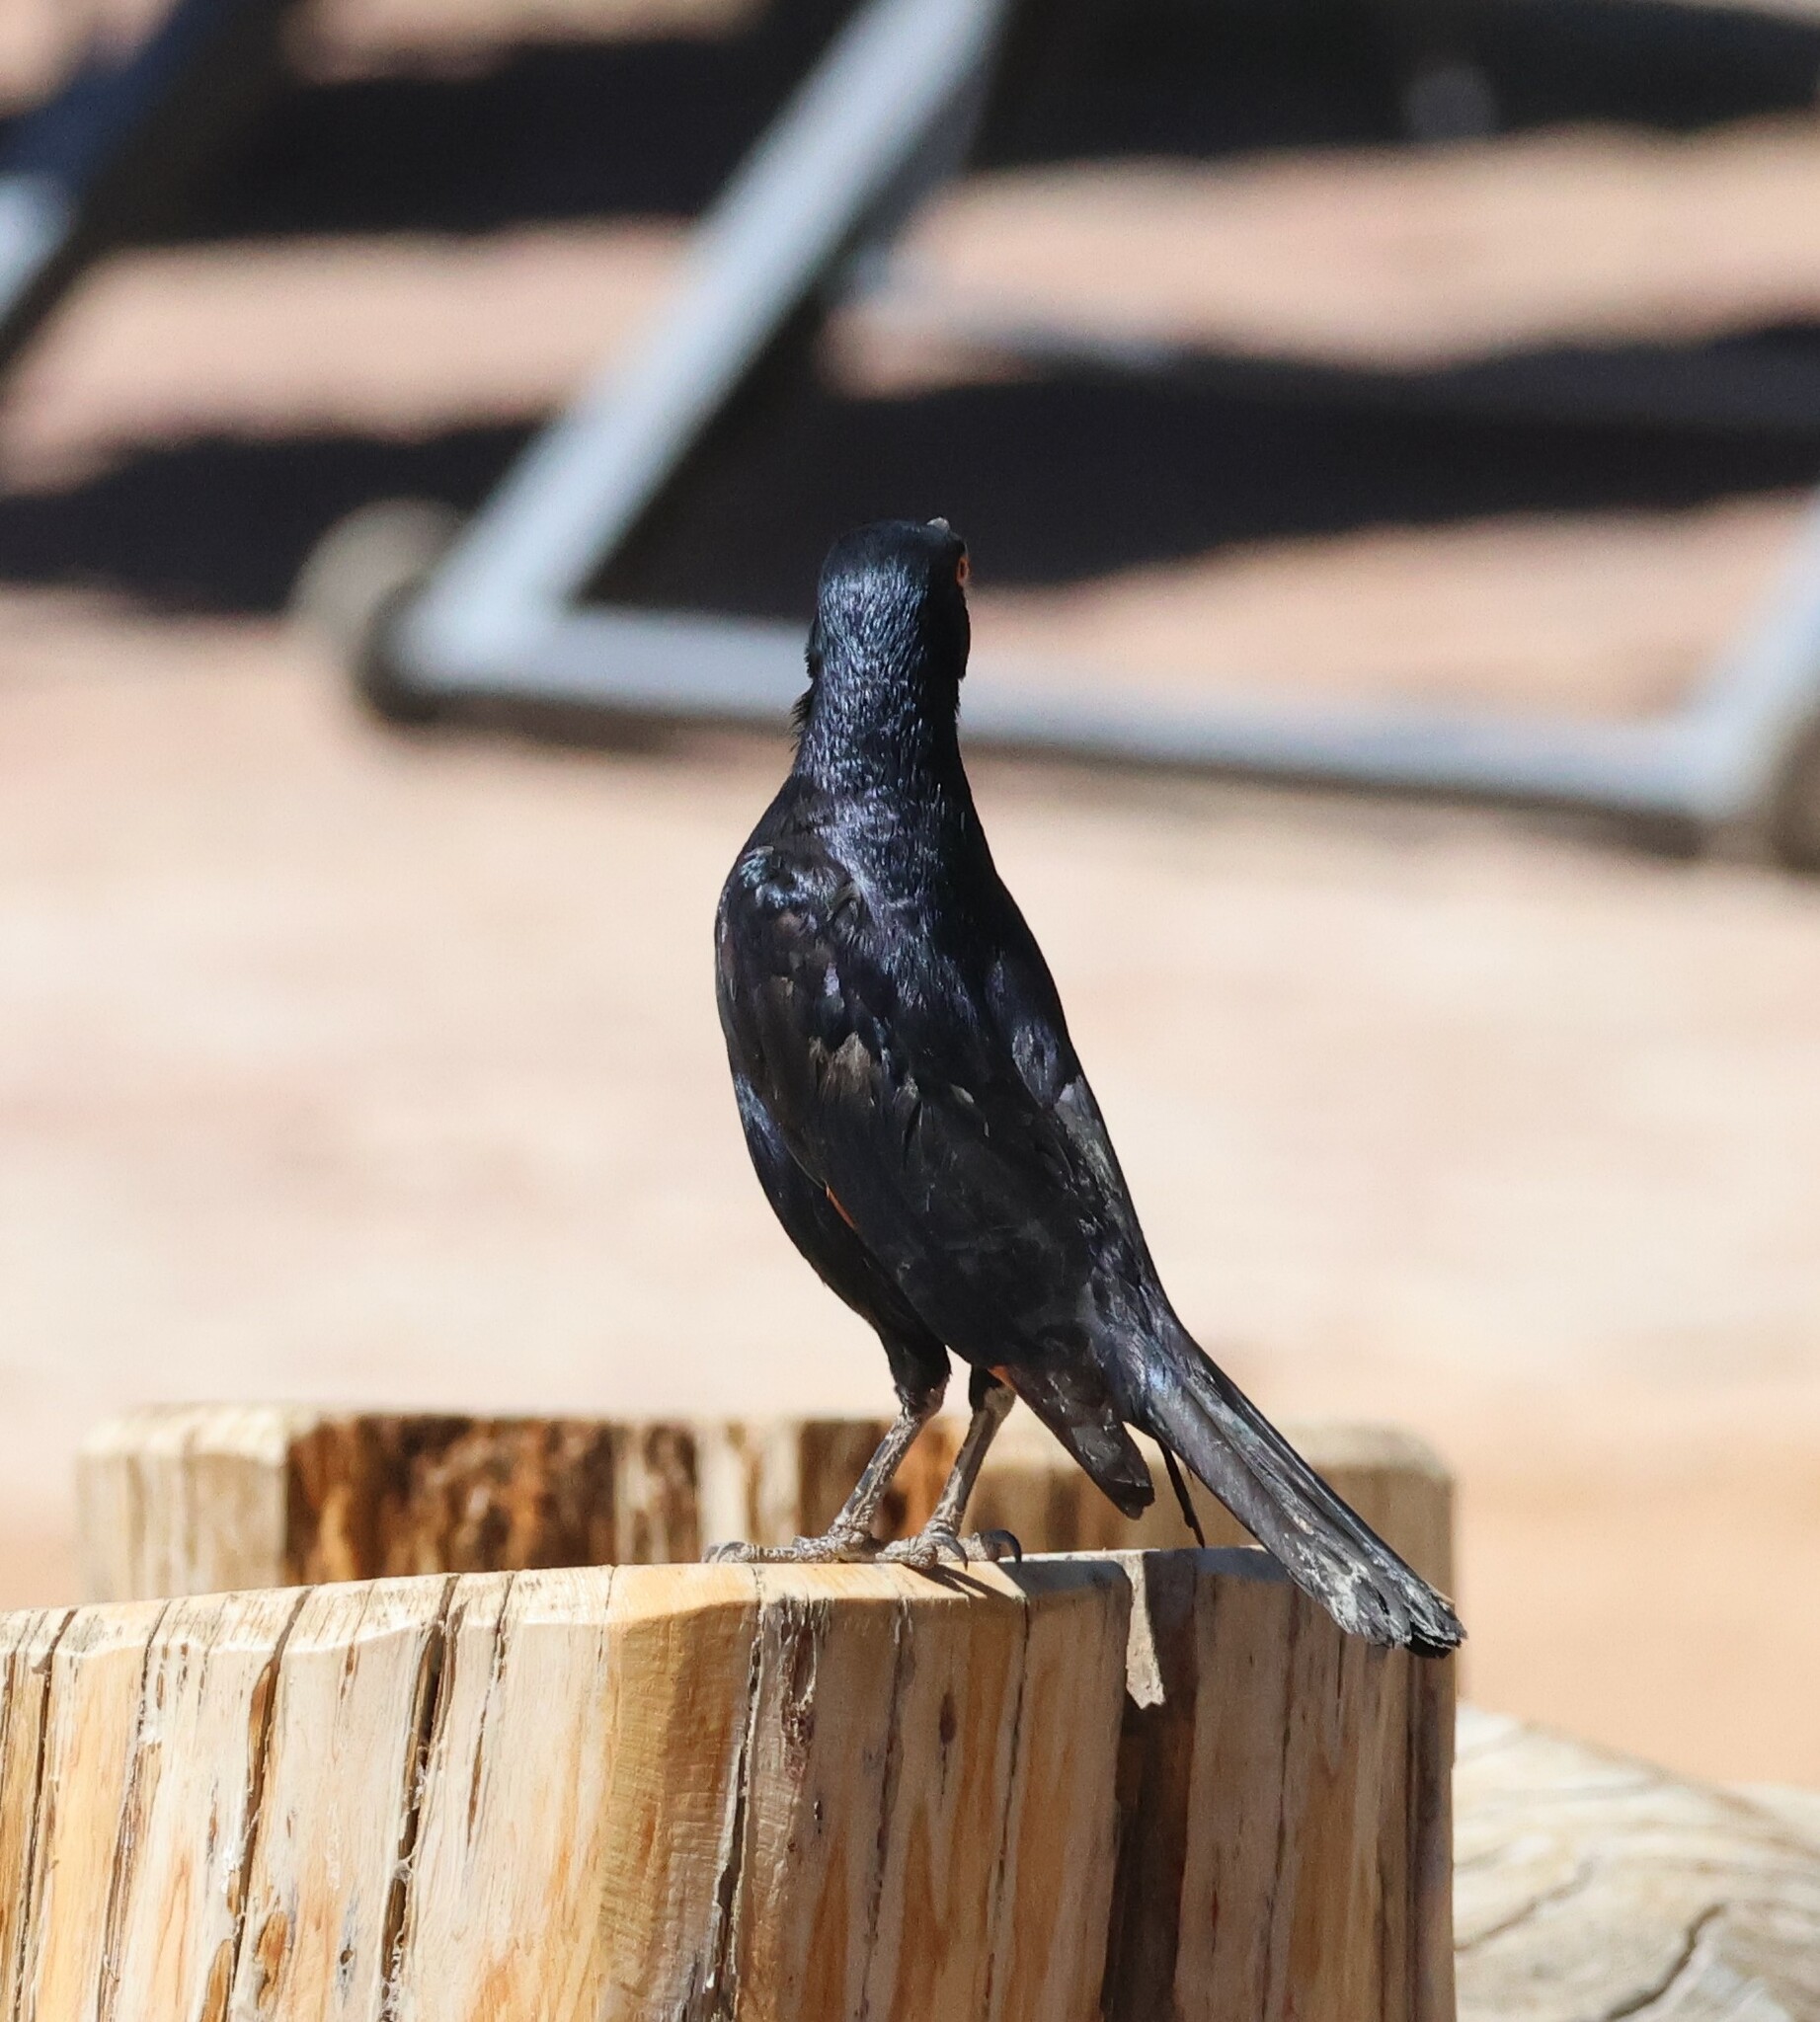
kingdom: Animalia
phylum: Chordata
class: Aves
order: Passeriformes
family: Sturnidae
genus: Onychognathus
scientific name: Onychognathus nabouroup
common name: Pale-winged starling
